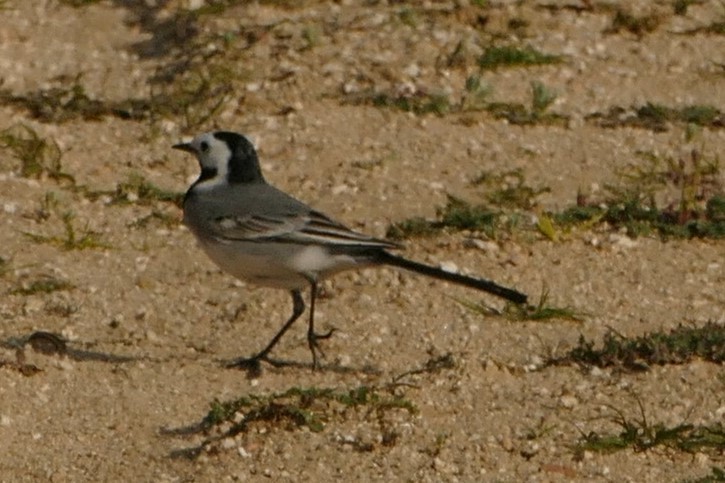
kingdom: Animalia
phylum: Chordata
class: Aves
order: Passeriformes
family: Motacillidae
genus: Motacilla
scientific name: Motacilla alba
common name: White wagtail
